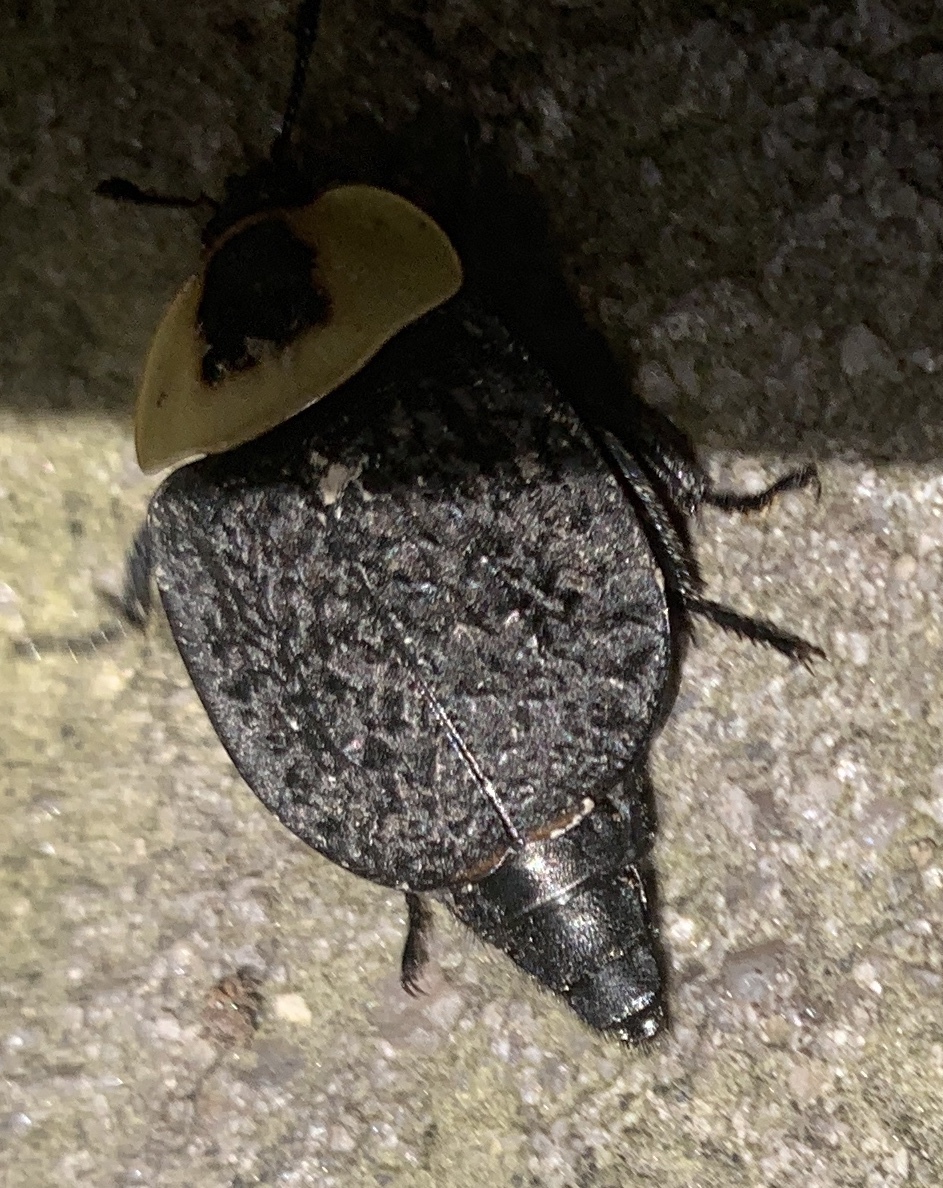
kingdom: Animalia
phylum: Arthropoda
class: Insecta
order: Coleoptera
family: Staphylinidae
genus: Necrophila
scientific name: Necrophila americana
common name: American carrion beetle
